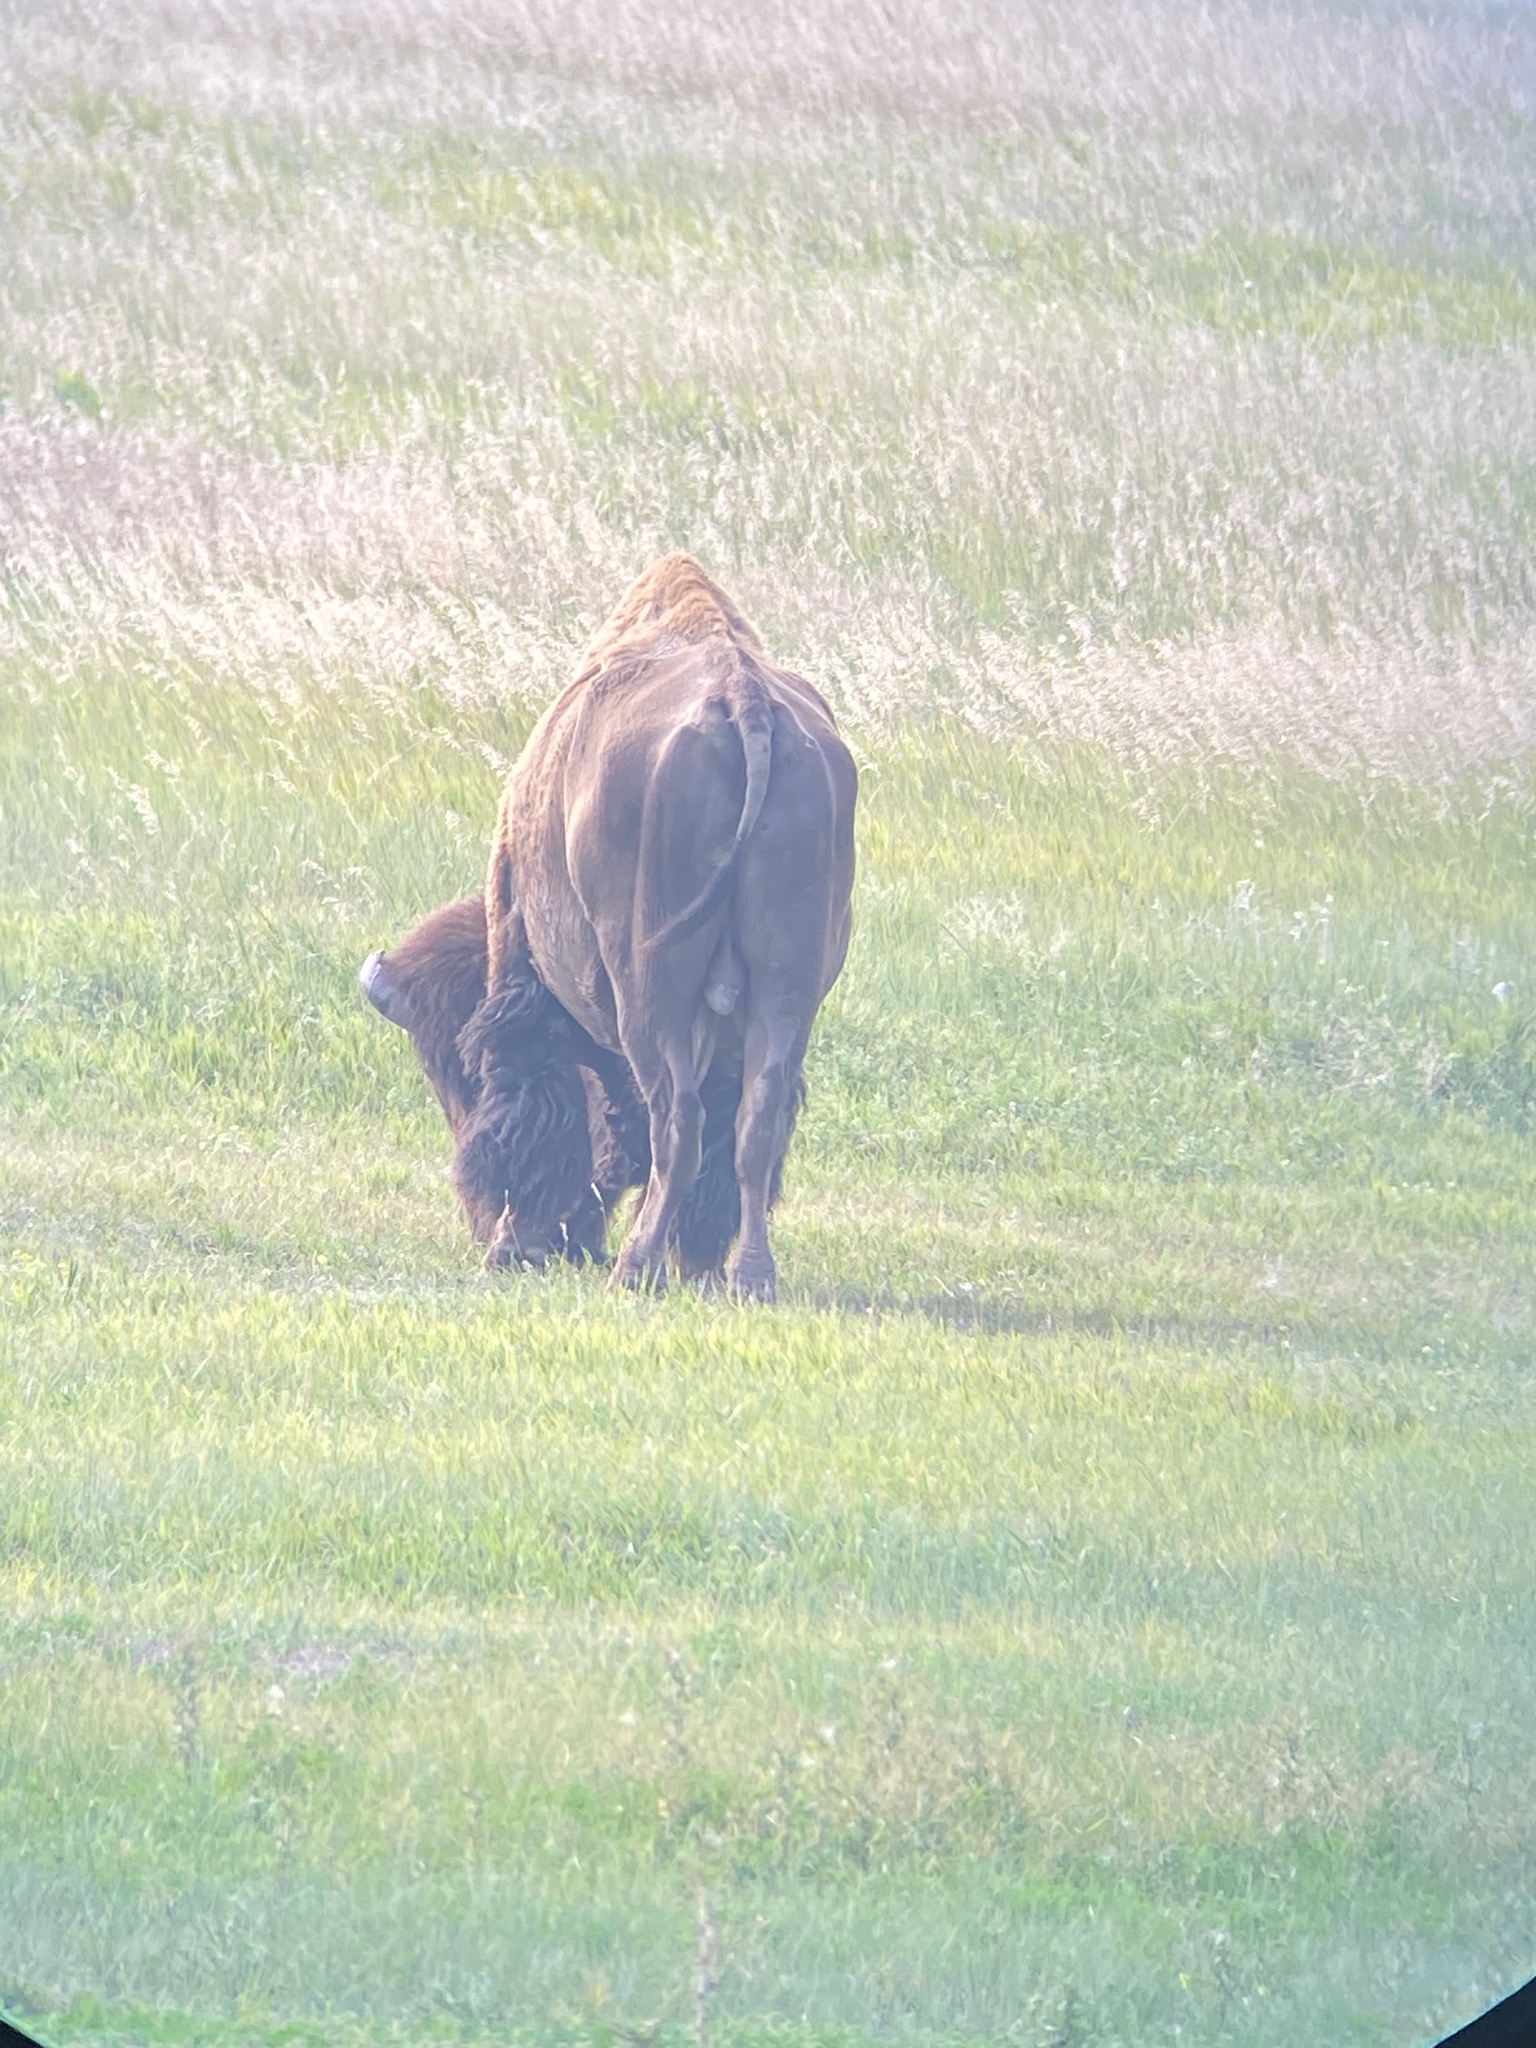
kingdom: Animalia
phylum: Chordata
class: Mammalia
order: Artiodactyla
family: Bovidae
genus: Bison
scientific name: Bison bison
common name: American bison
